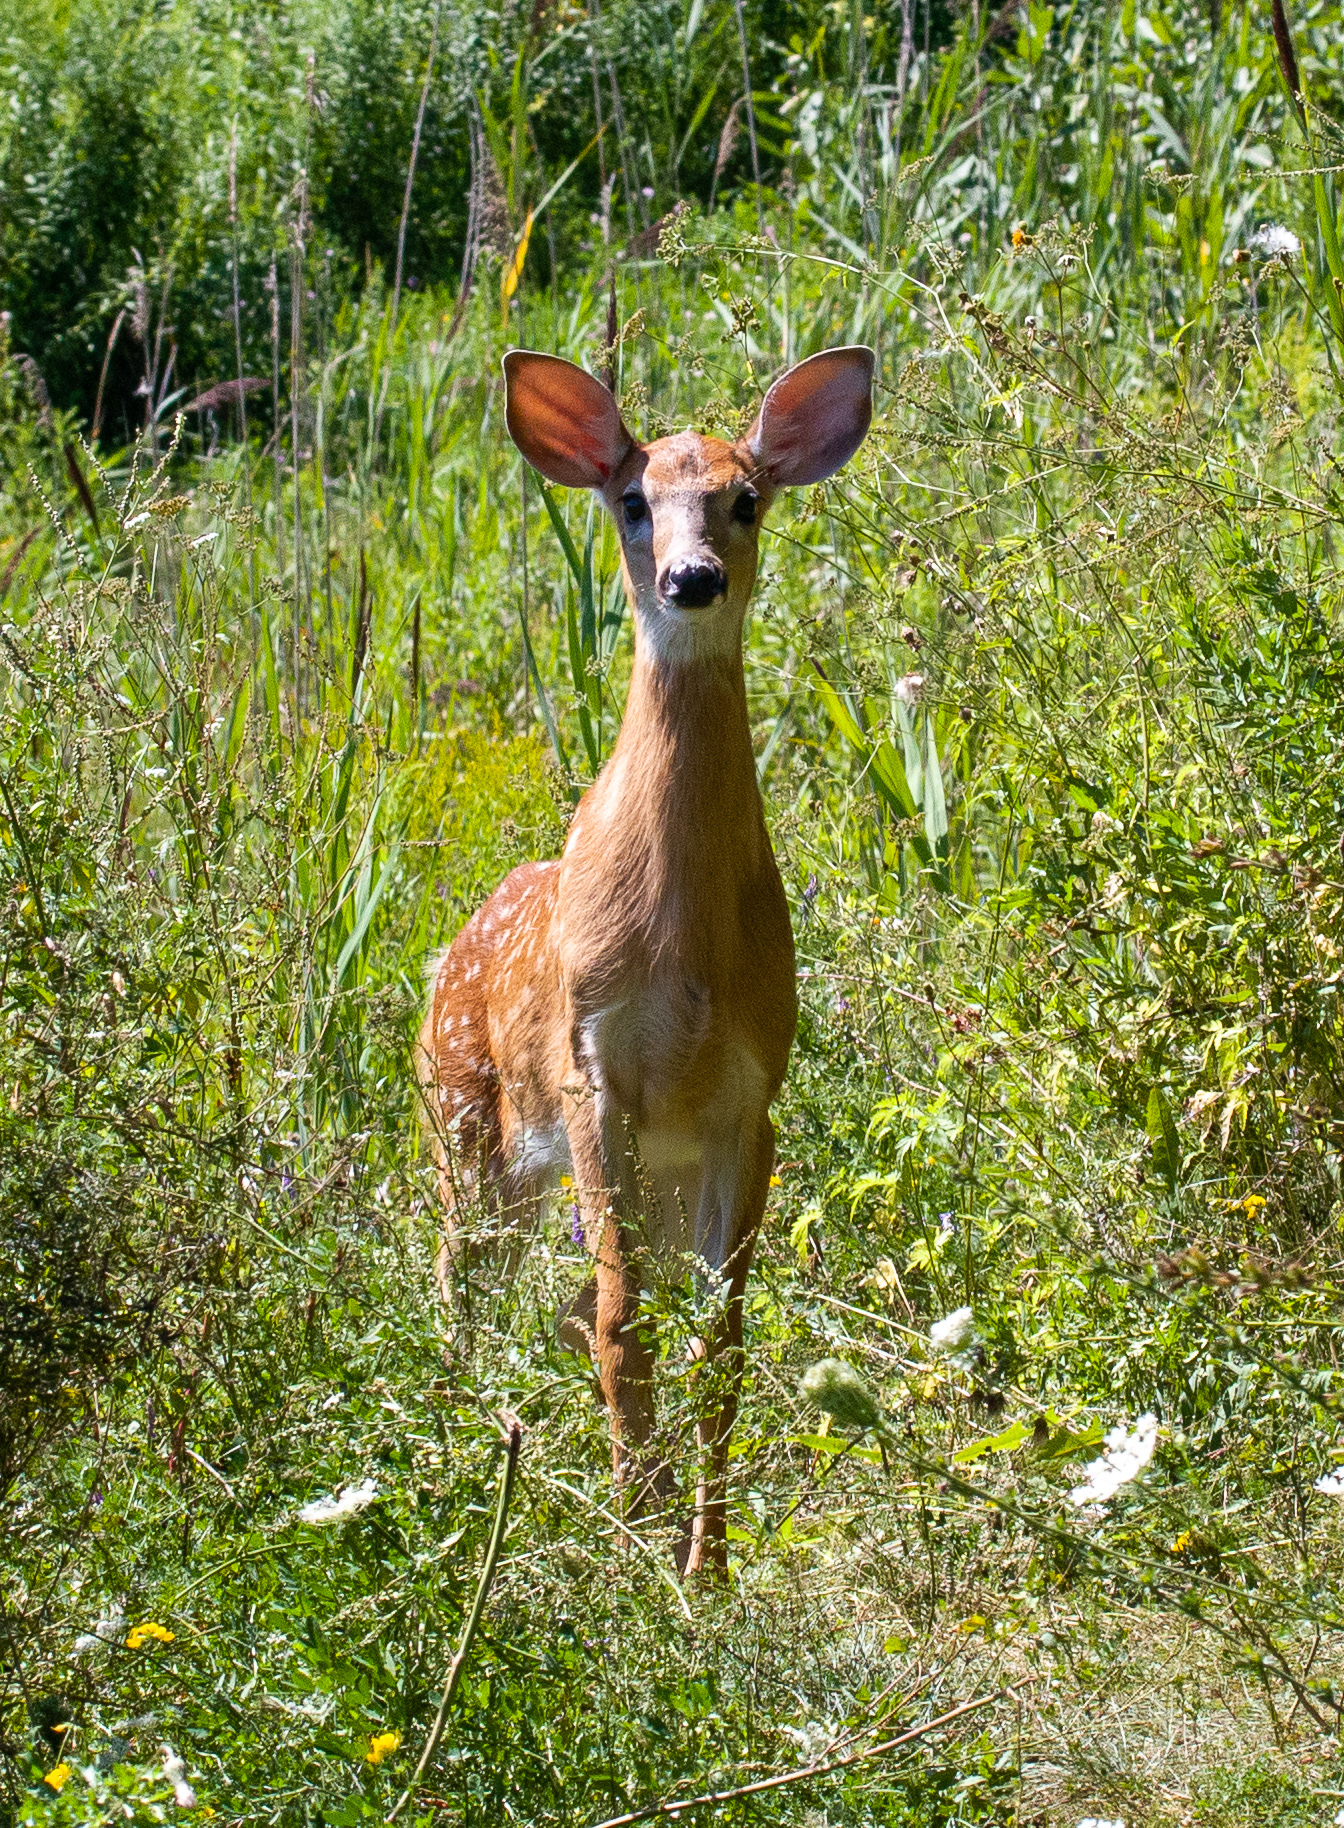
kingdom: Animalia
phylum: Chordata
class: Mammalia
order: Artiodactyla
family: Cervidae
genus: Odocoileus
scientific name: Odocoileus virginianus
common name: White-tailed deer
